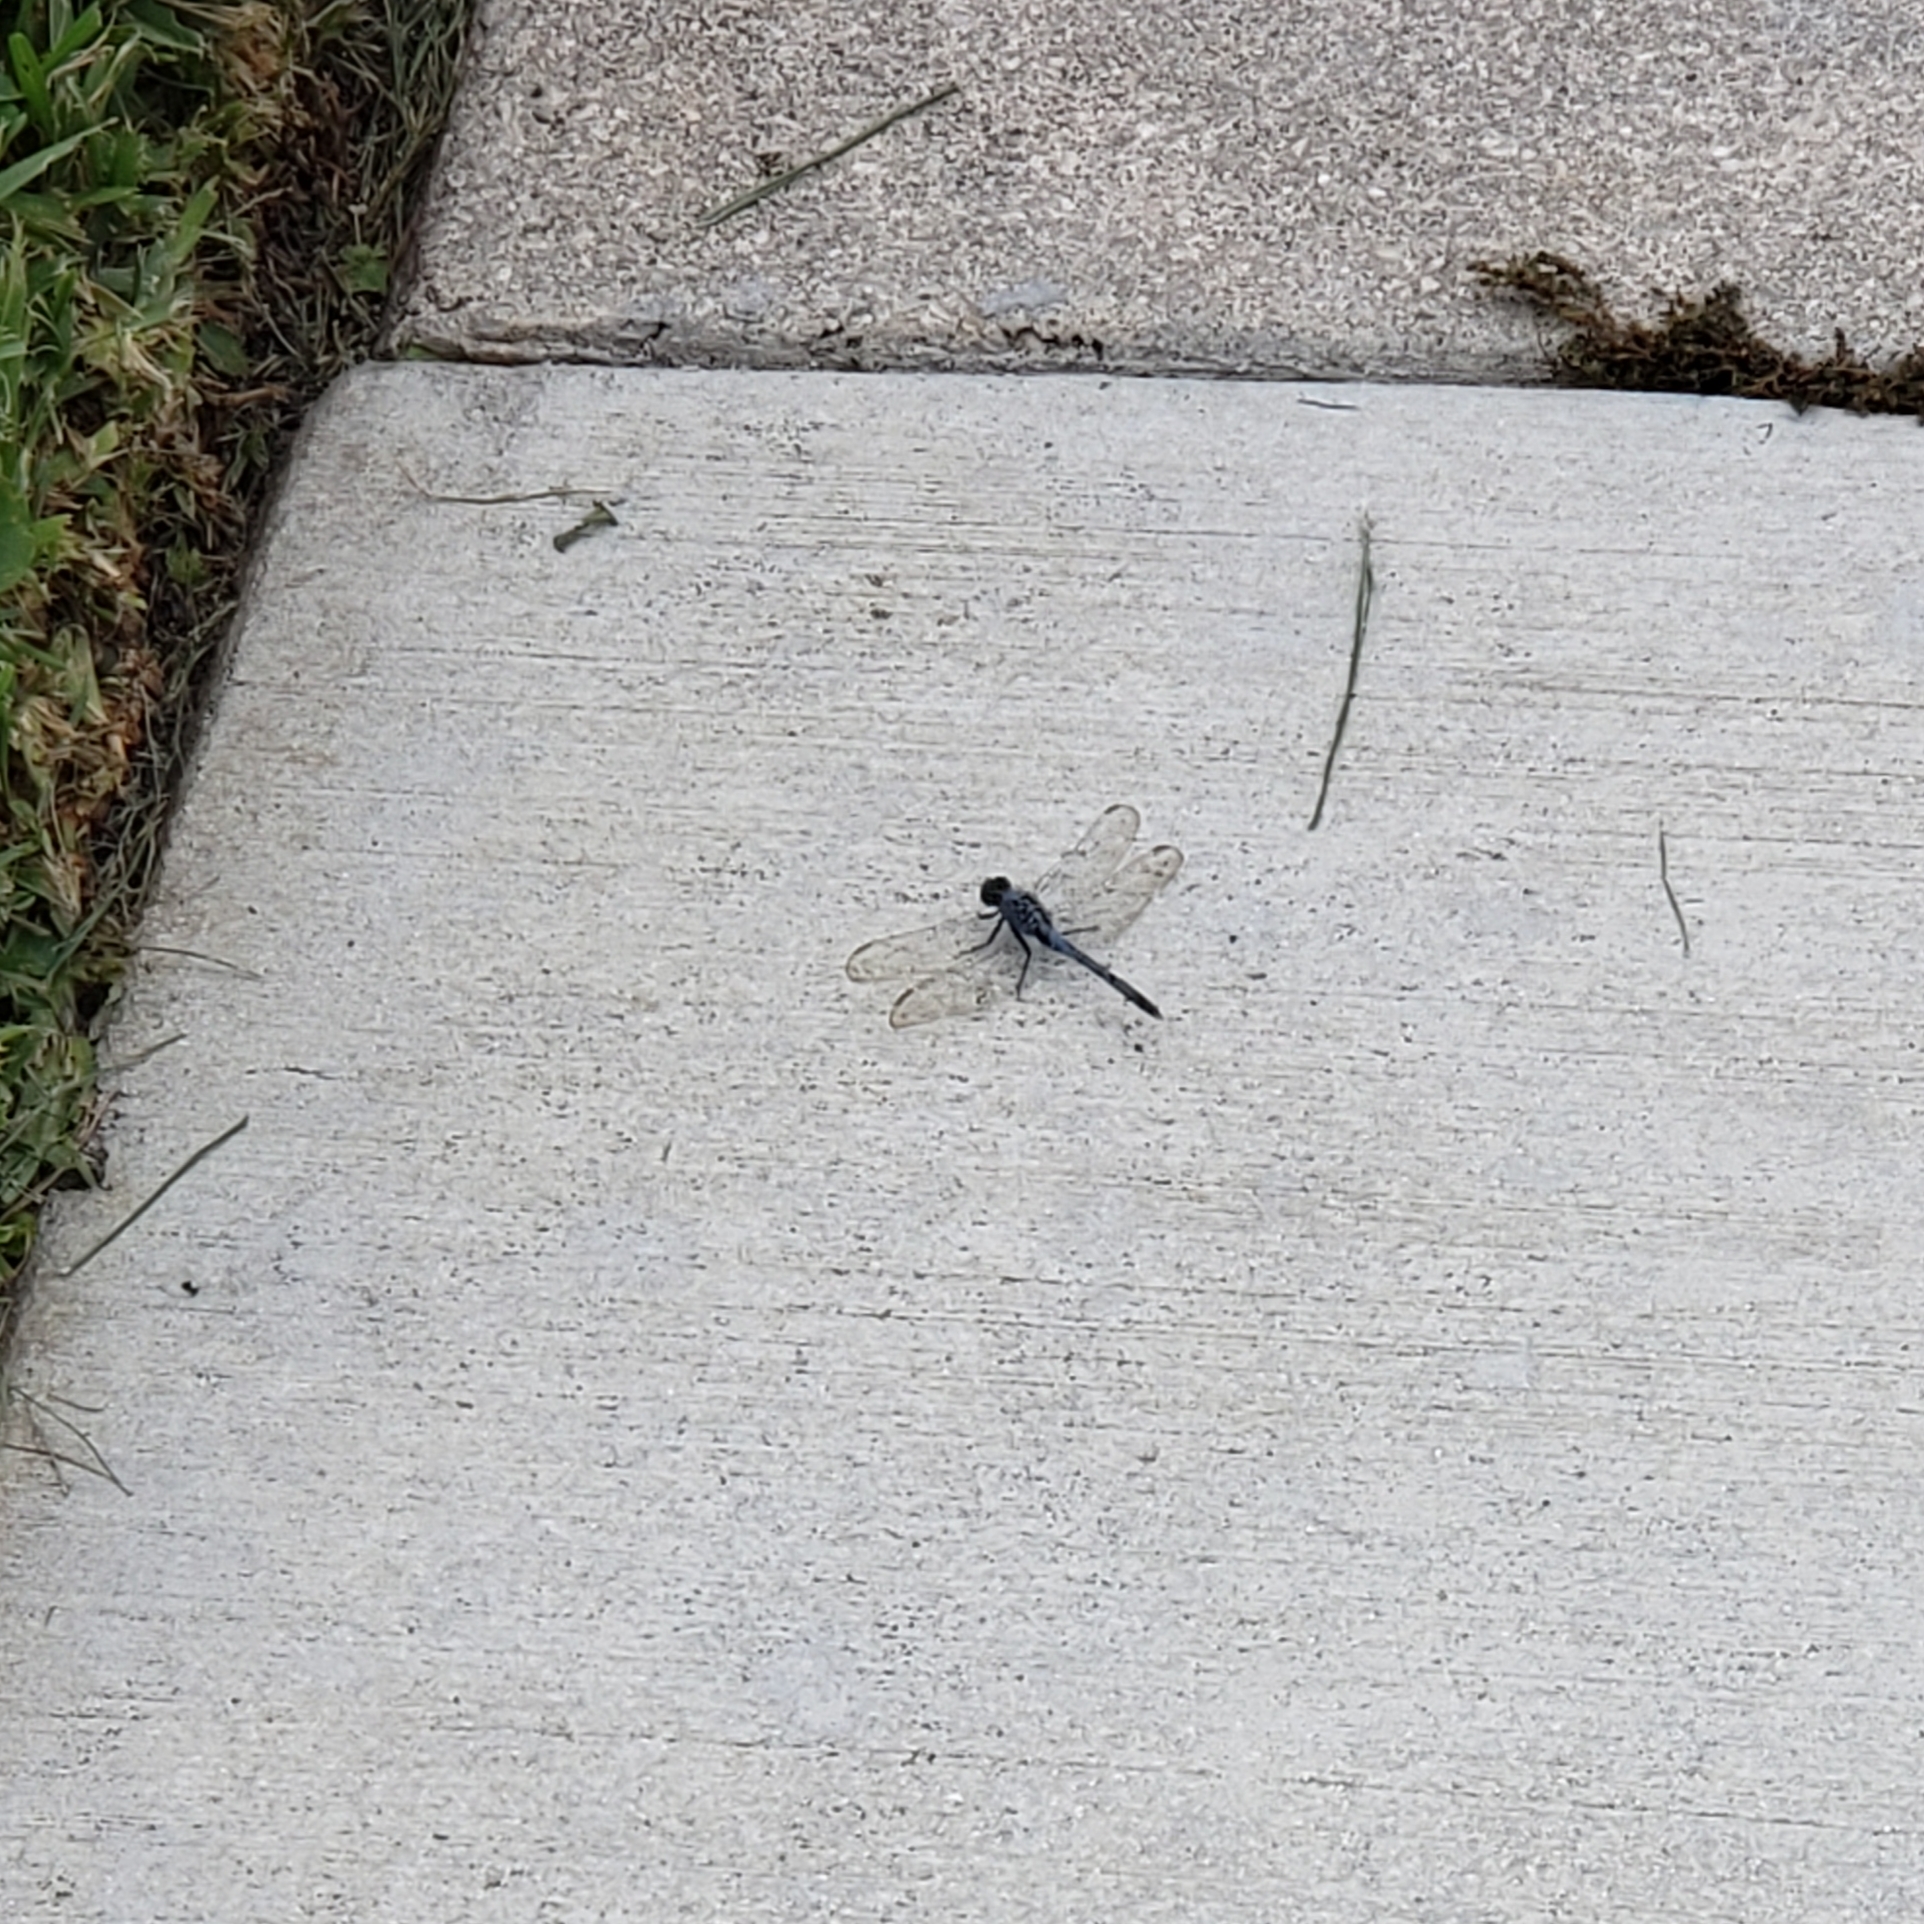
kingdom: Animalia
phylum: Arthropoda
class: Insecta
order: Odonata
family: Libellulidae
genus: Erythemis
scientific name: Erythemis simplicicollis
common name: Eastern pondhawk
